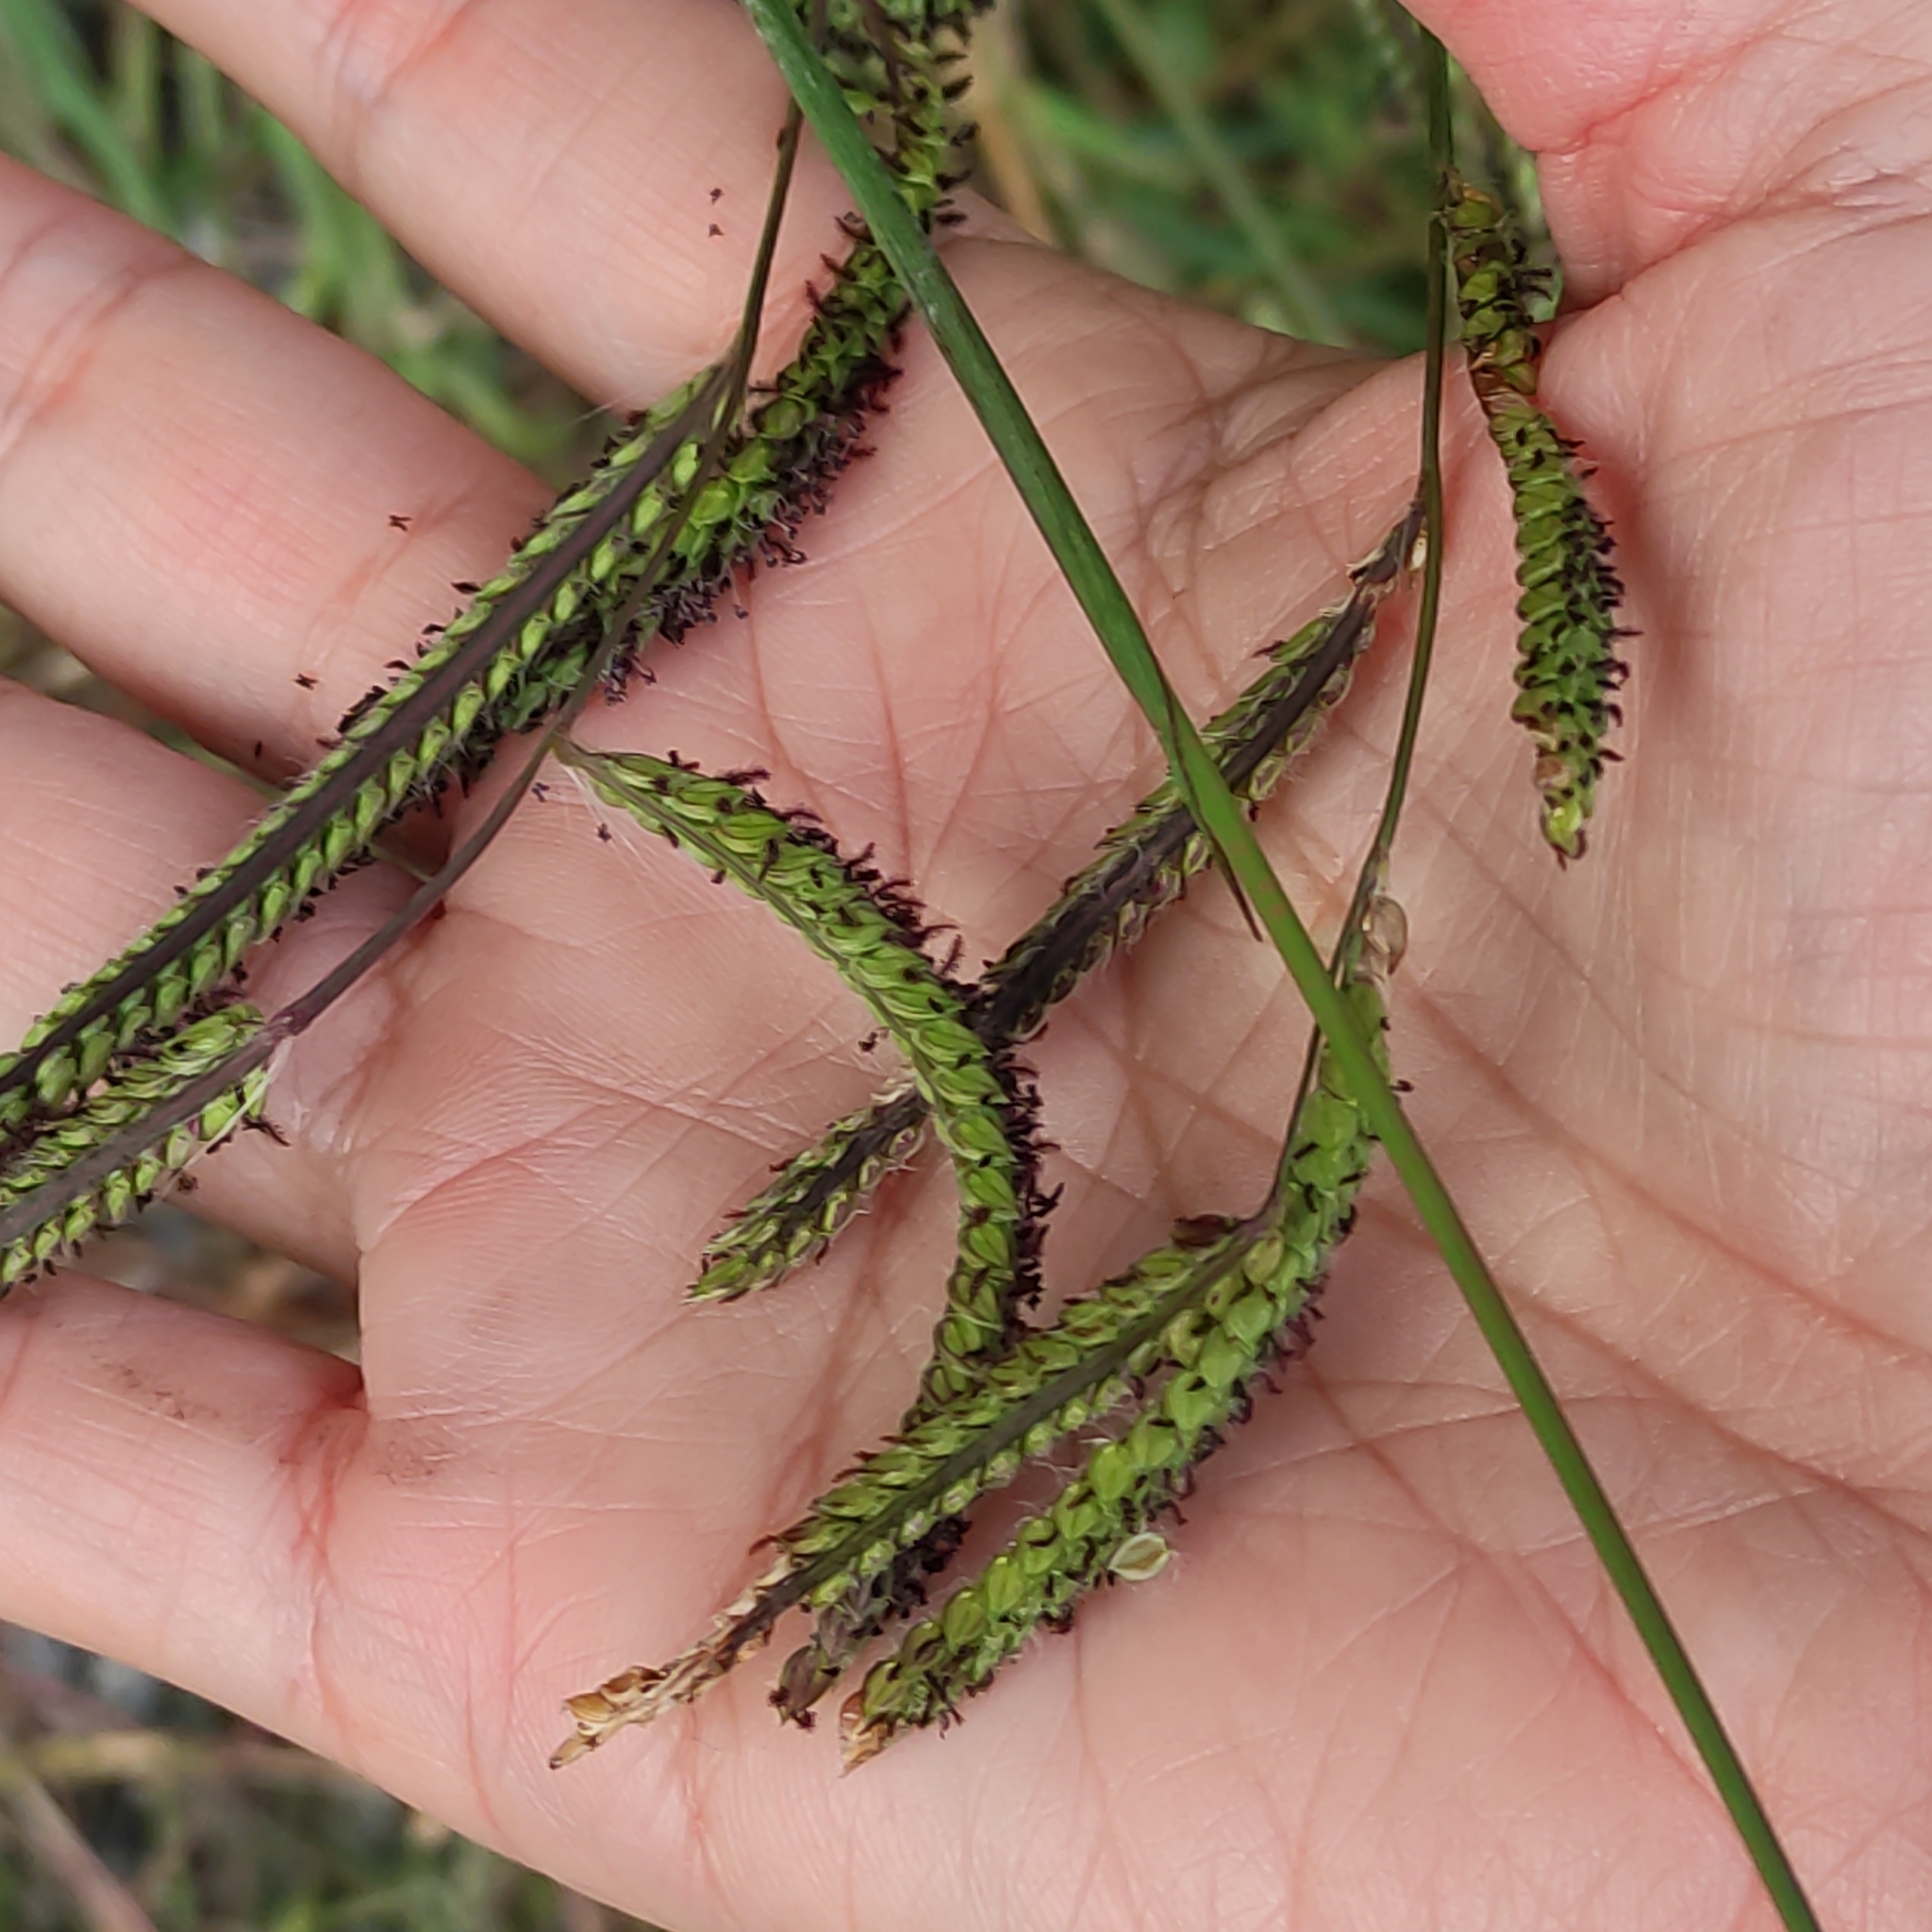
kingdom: Plantae
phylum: Tracheophyta
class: Liliopsida
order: Poales
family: Poaceae
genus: Paspalum
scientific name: Paspalum dilatatum
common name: Dallisgrass
